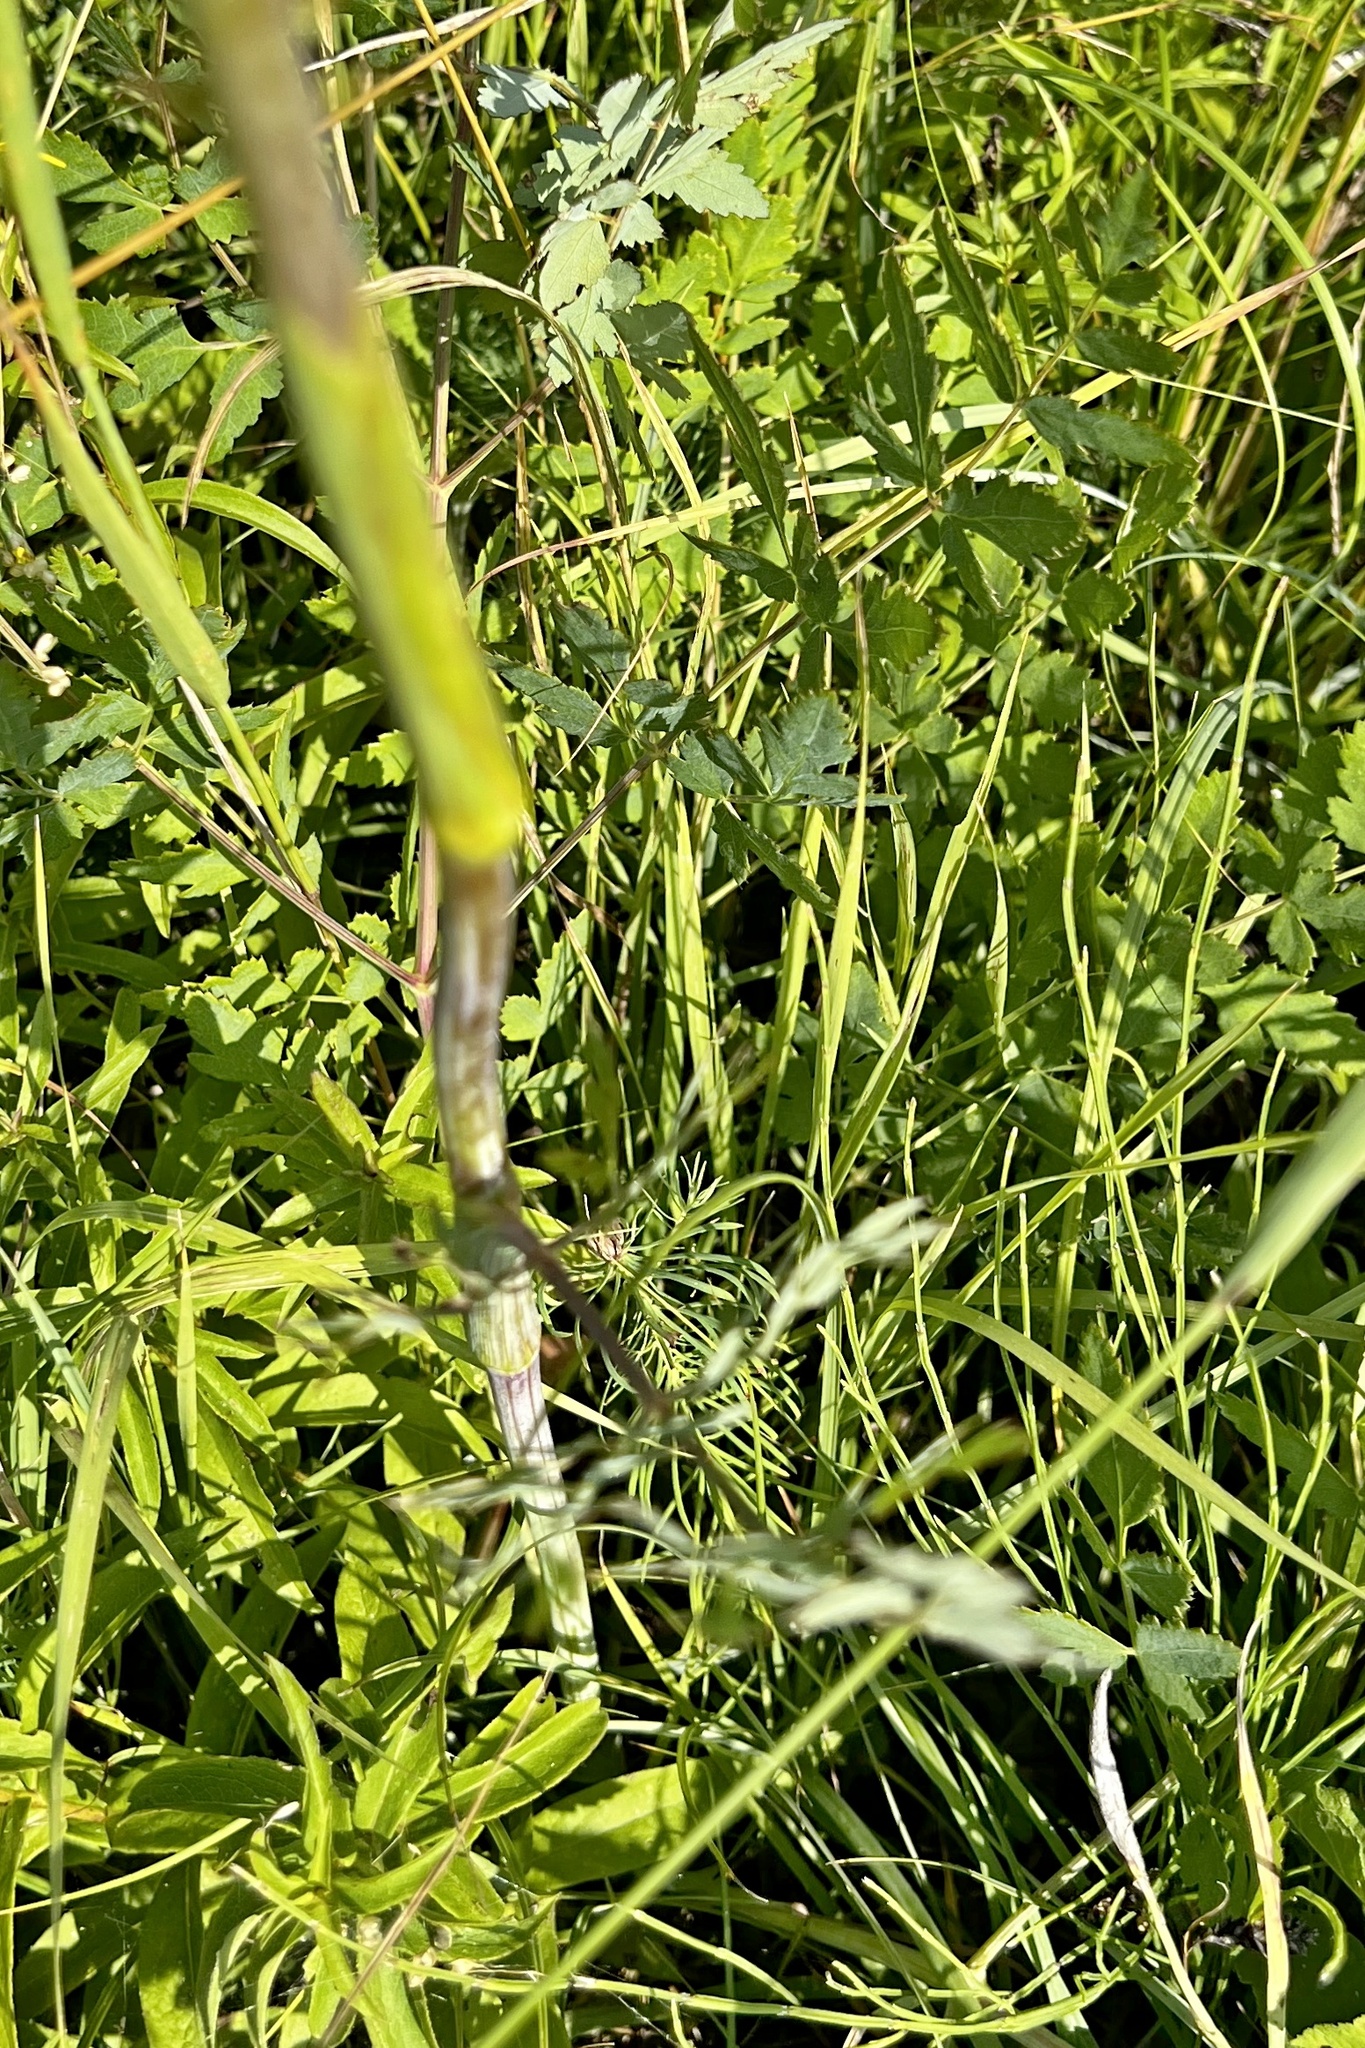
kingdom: Plantae
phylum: Tracheophyta
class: Magnoliopsida
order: Apiales
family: Apiaceae
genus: Cervaria
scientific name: Cervaria rivini
